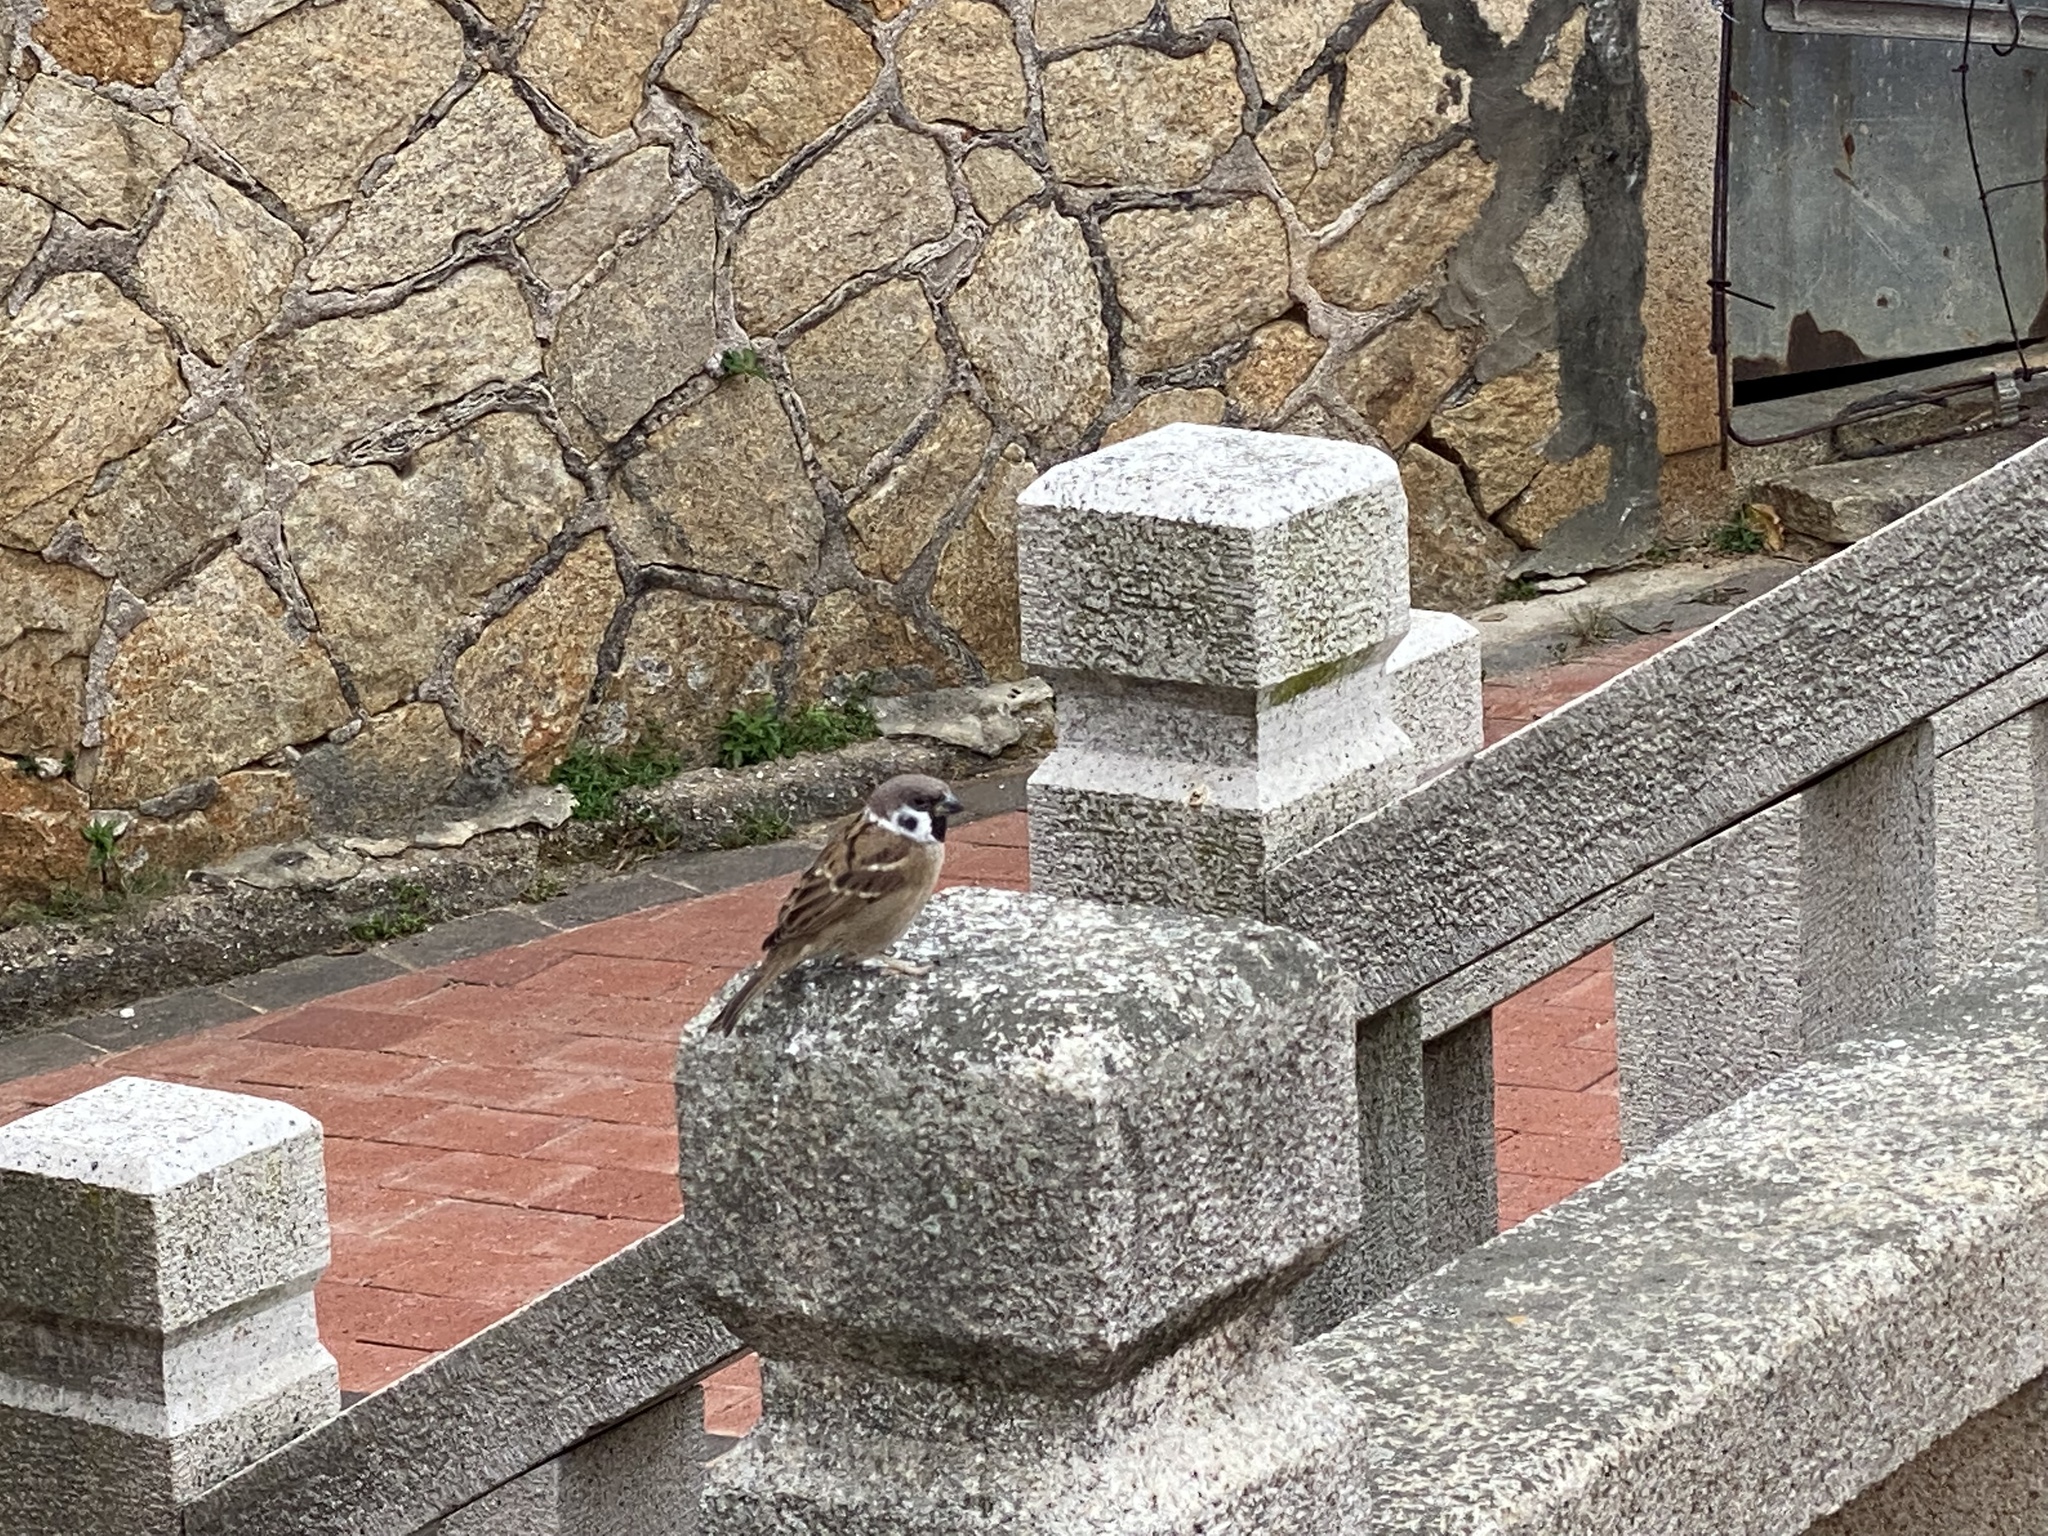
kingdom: Animalia
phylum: Chordata
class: Aves
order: Passeriformes
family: Passeridae
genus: Passer
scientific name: Passer montanus
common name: Eurasian tree sparrow
